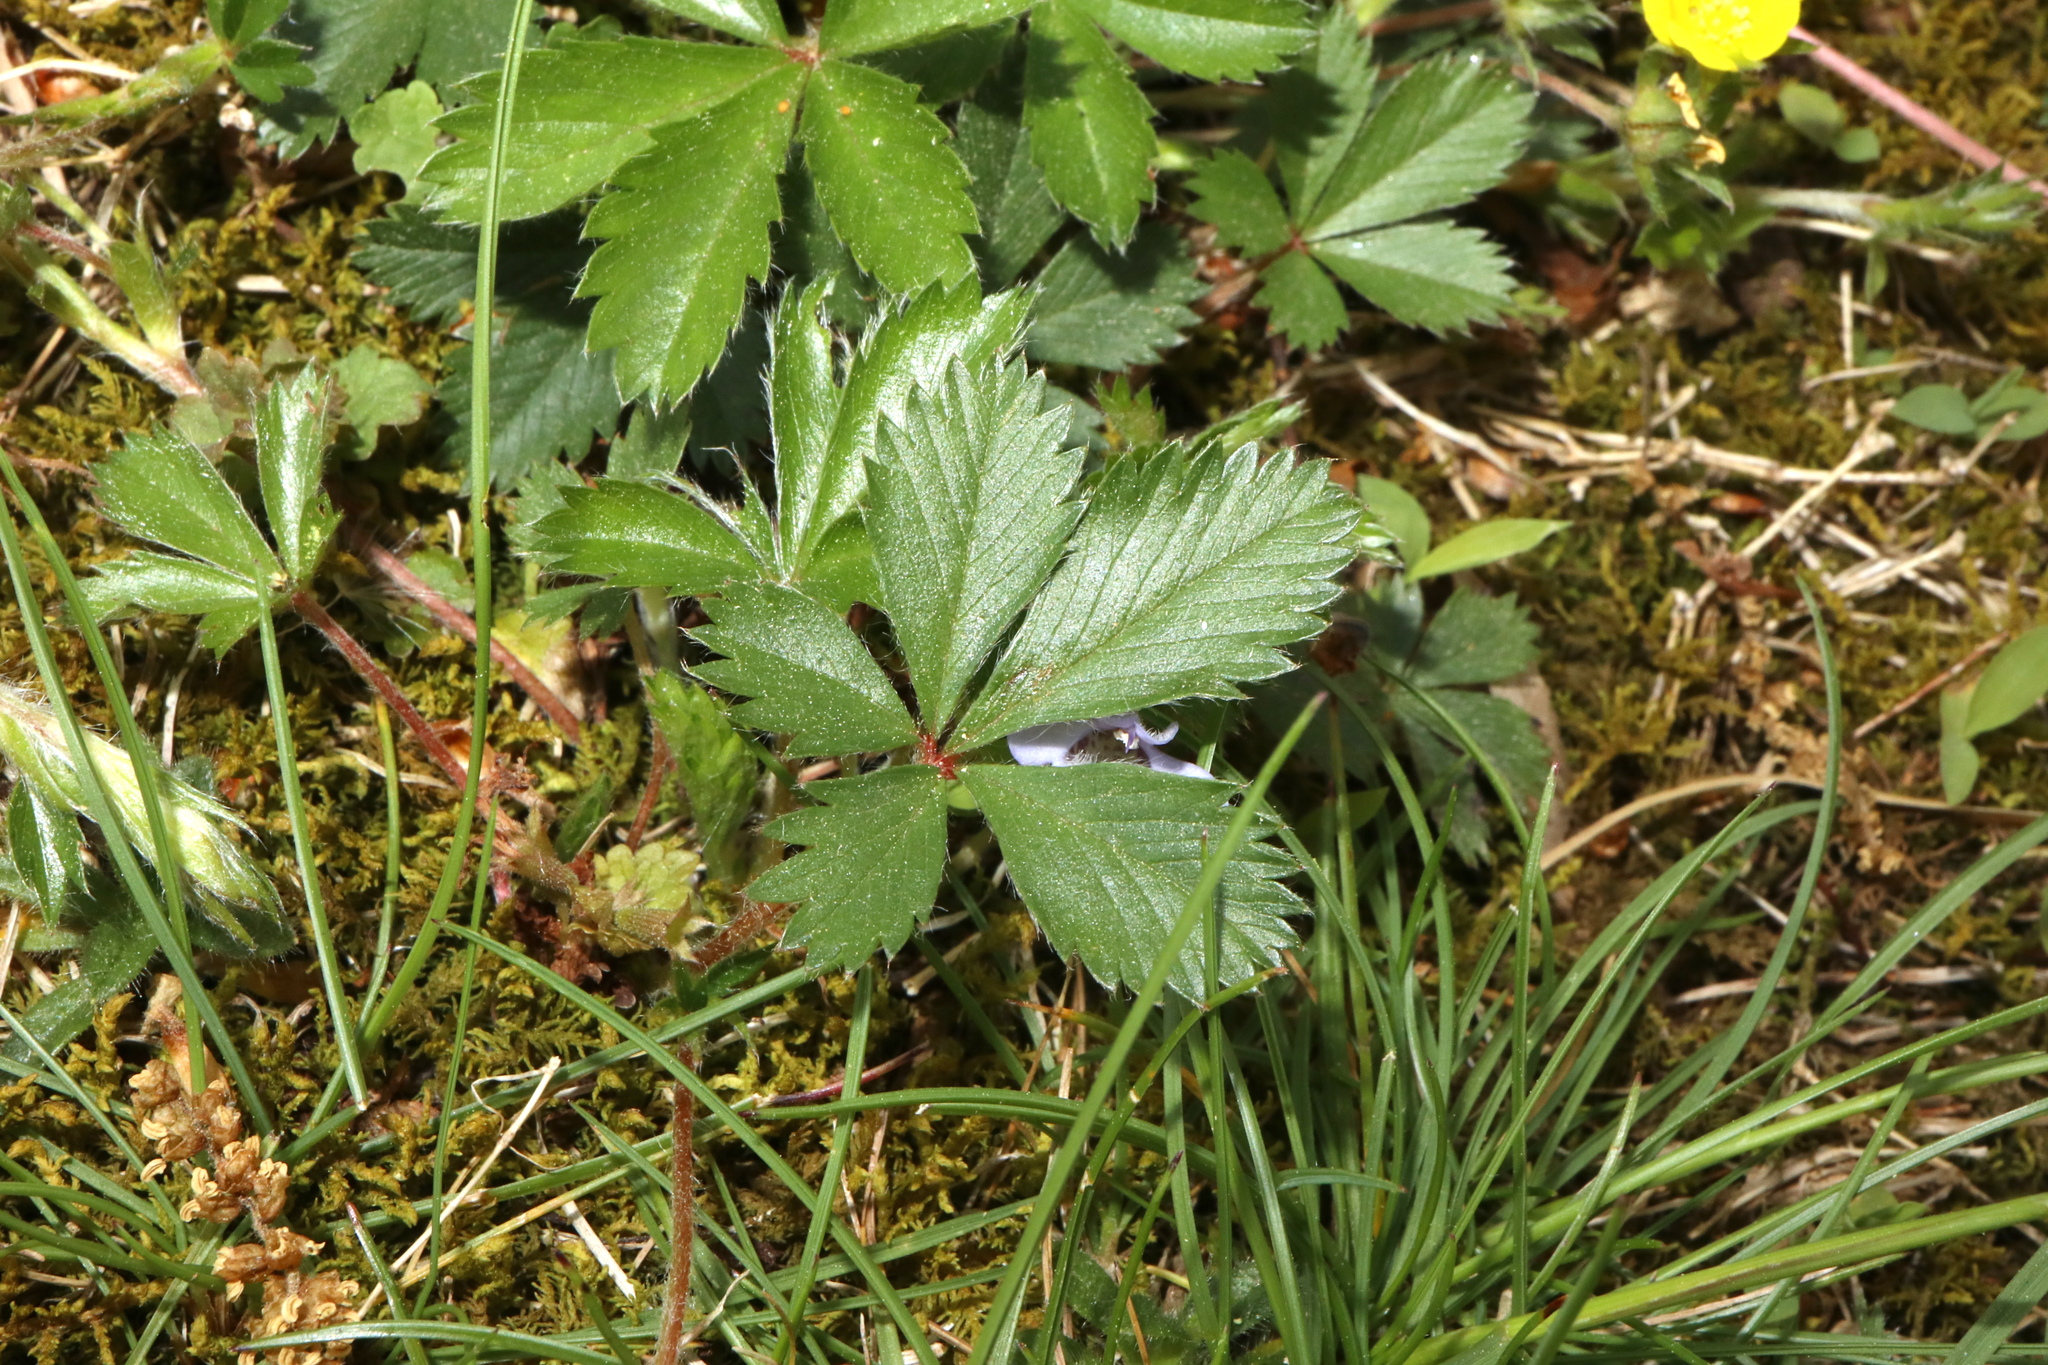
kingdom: Plantae
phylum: Tracheophyta
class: Magnoliopsida
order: Rosales
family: Rosaceae
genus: Potentilla
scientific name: Potentilla simplex
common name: Old field cinquefoil
